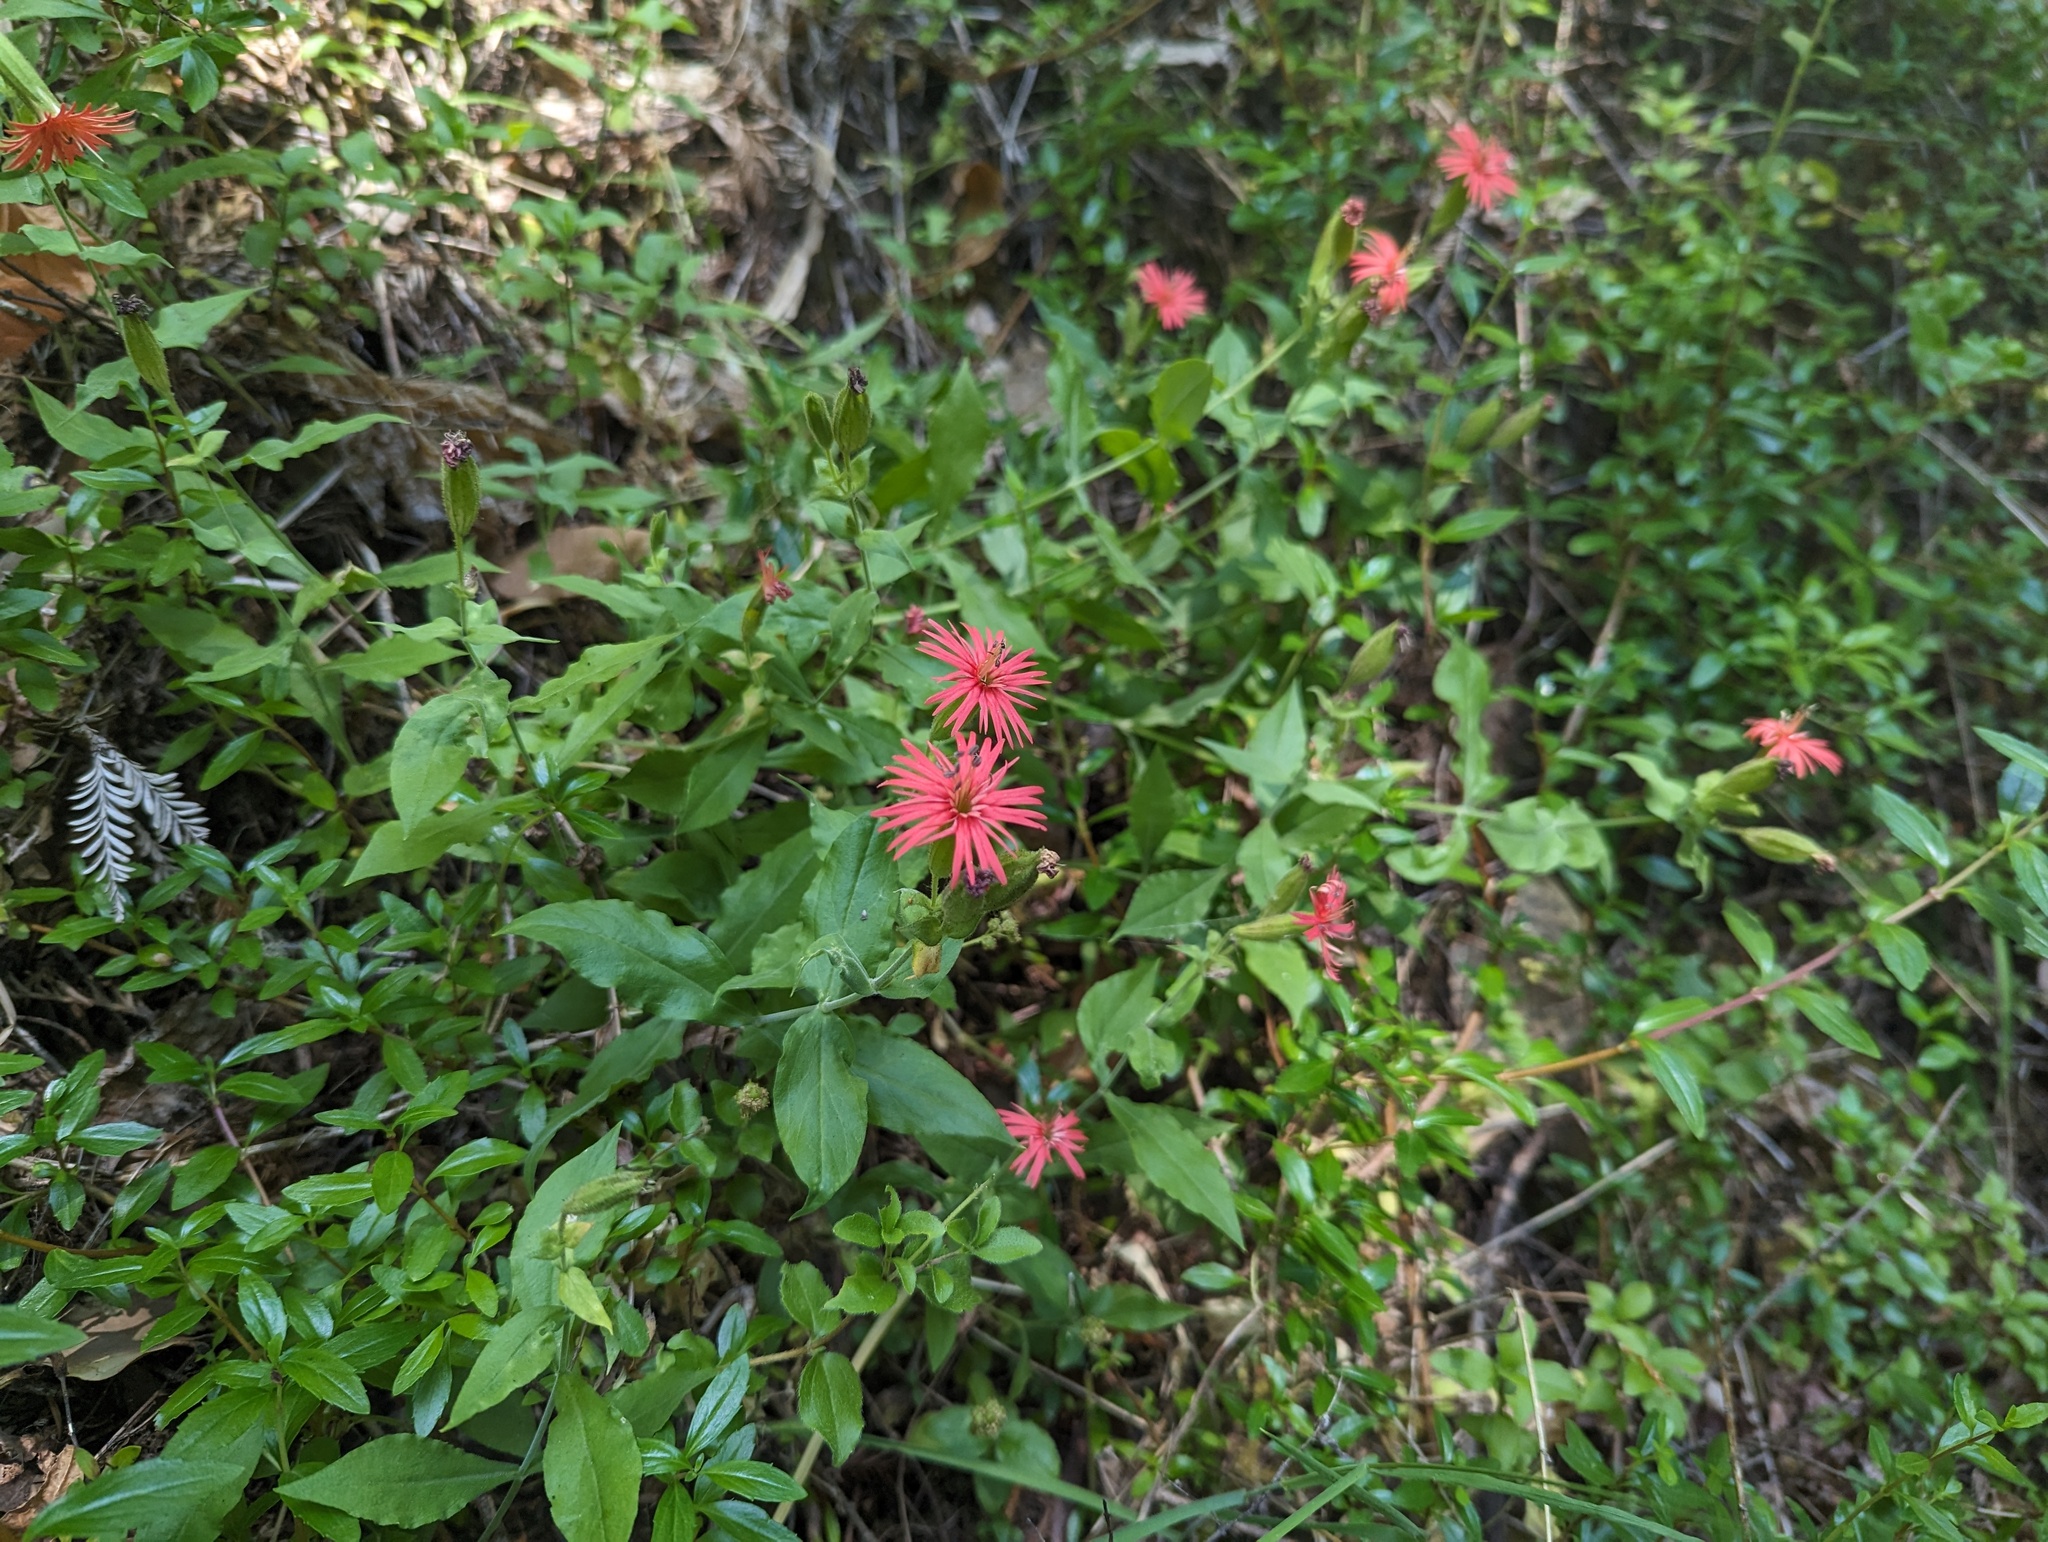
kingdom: Plantae
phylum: Tracheophyta
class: Magnoliopsida
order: Caryophyllales
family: Caryophyllaceae
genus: Silene
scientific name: Silene laciniata
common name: Indian-pink
